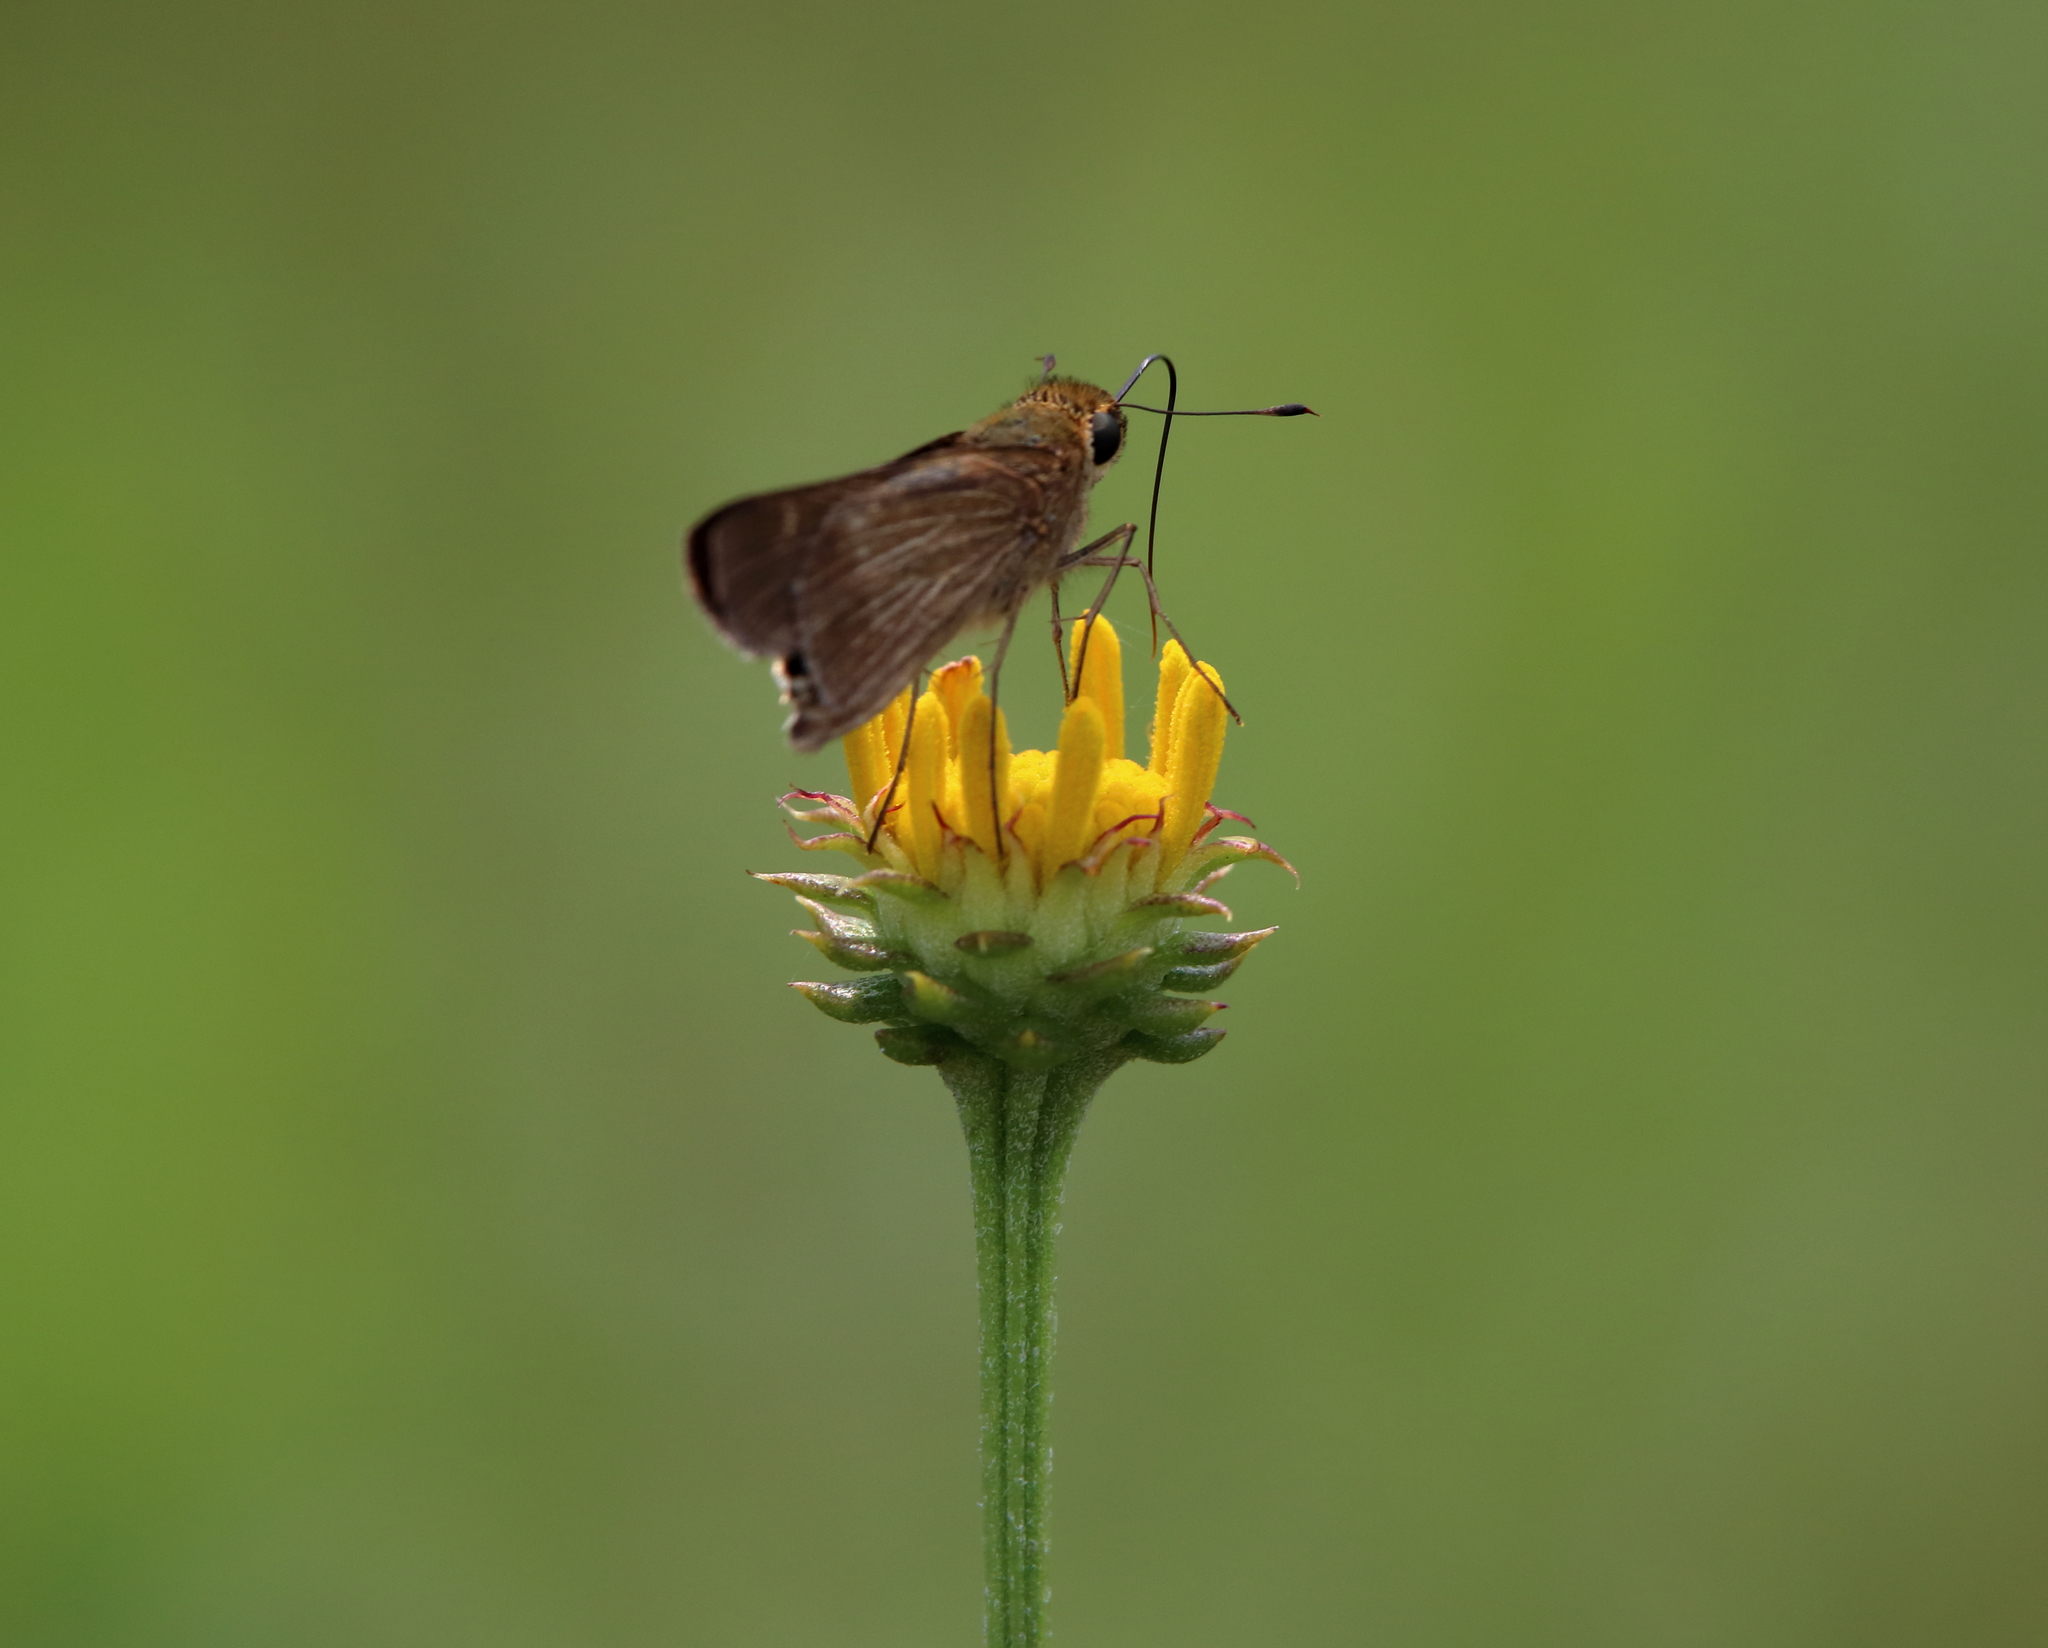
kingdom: Animalia
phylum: Arthropoda
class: Insecta
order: Lepidoptera
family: Hesperiidae
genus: Panoquina
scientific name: Panoquina ocola
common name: Ocola skipper
